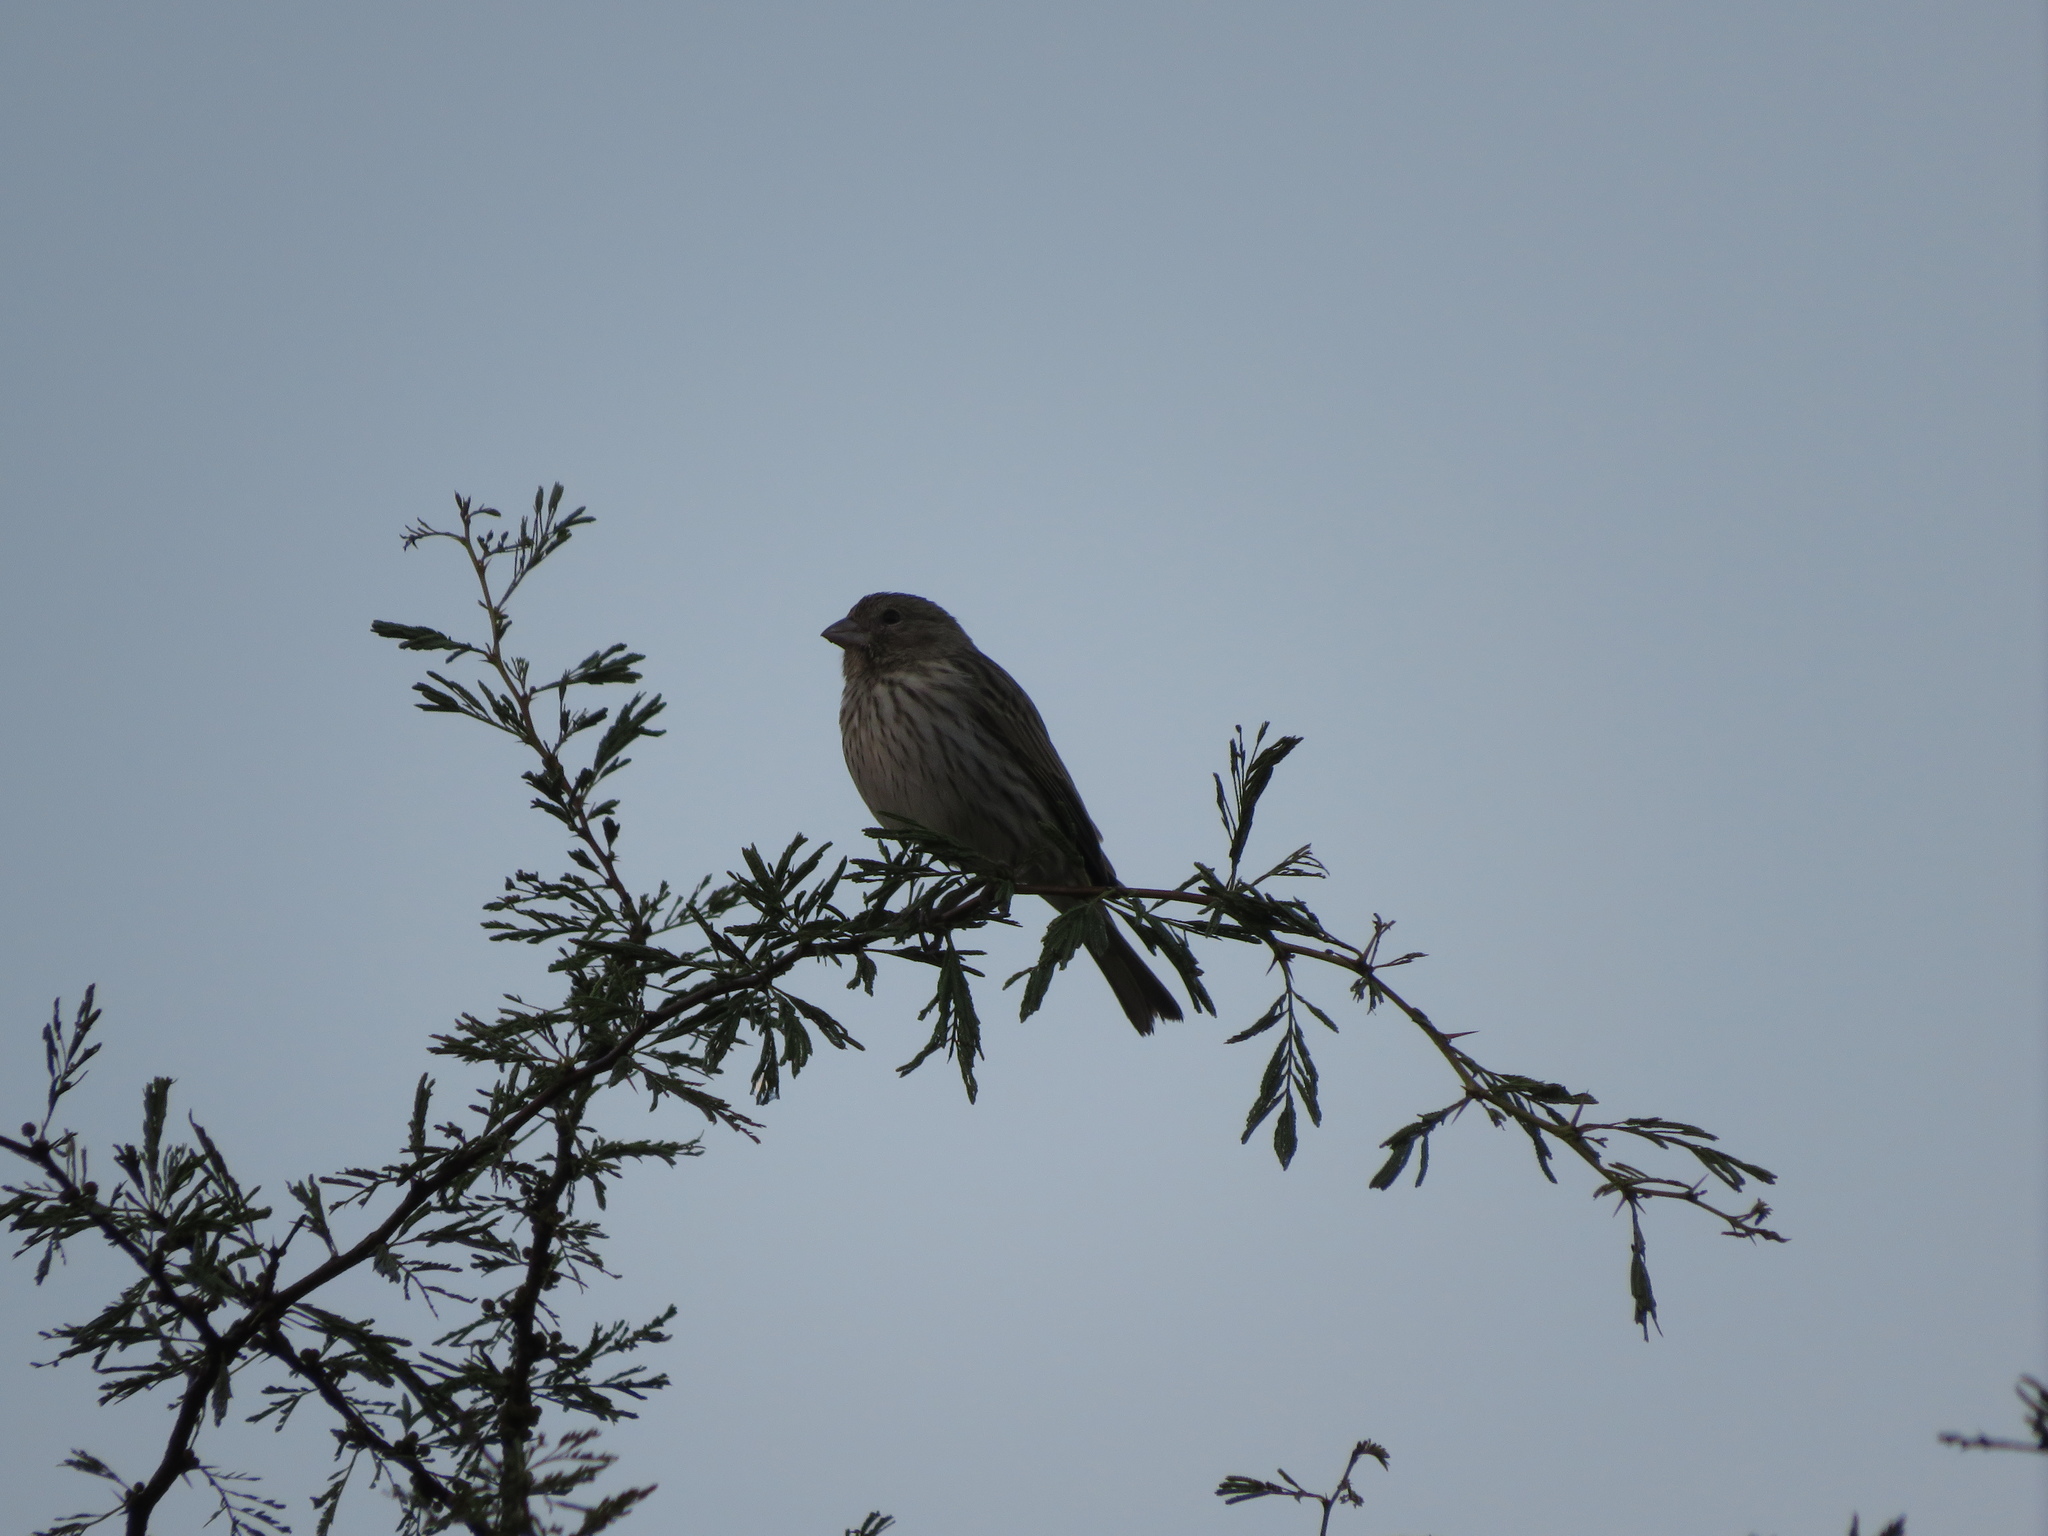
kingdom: Animalia
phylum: Chordata
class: Aves
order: Passeriformes
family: Thraupidae
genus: Sicalis
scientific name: Sicalis flaveola
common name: Saffron finch
